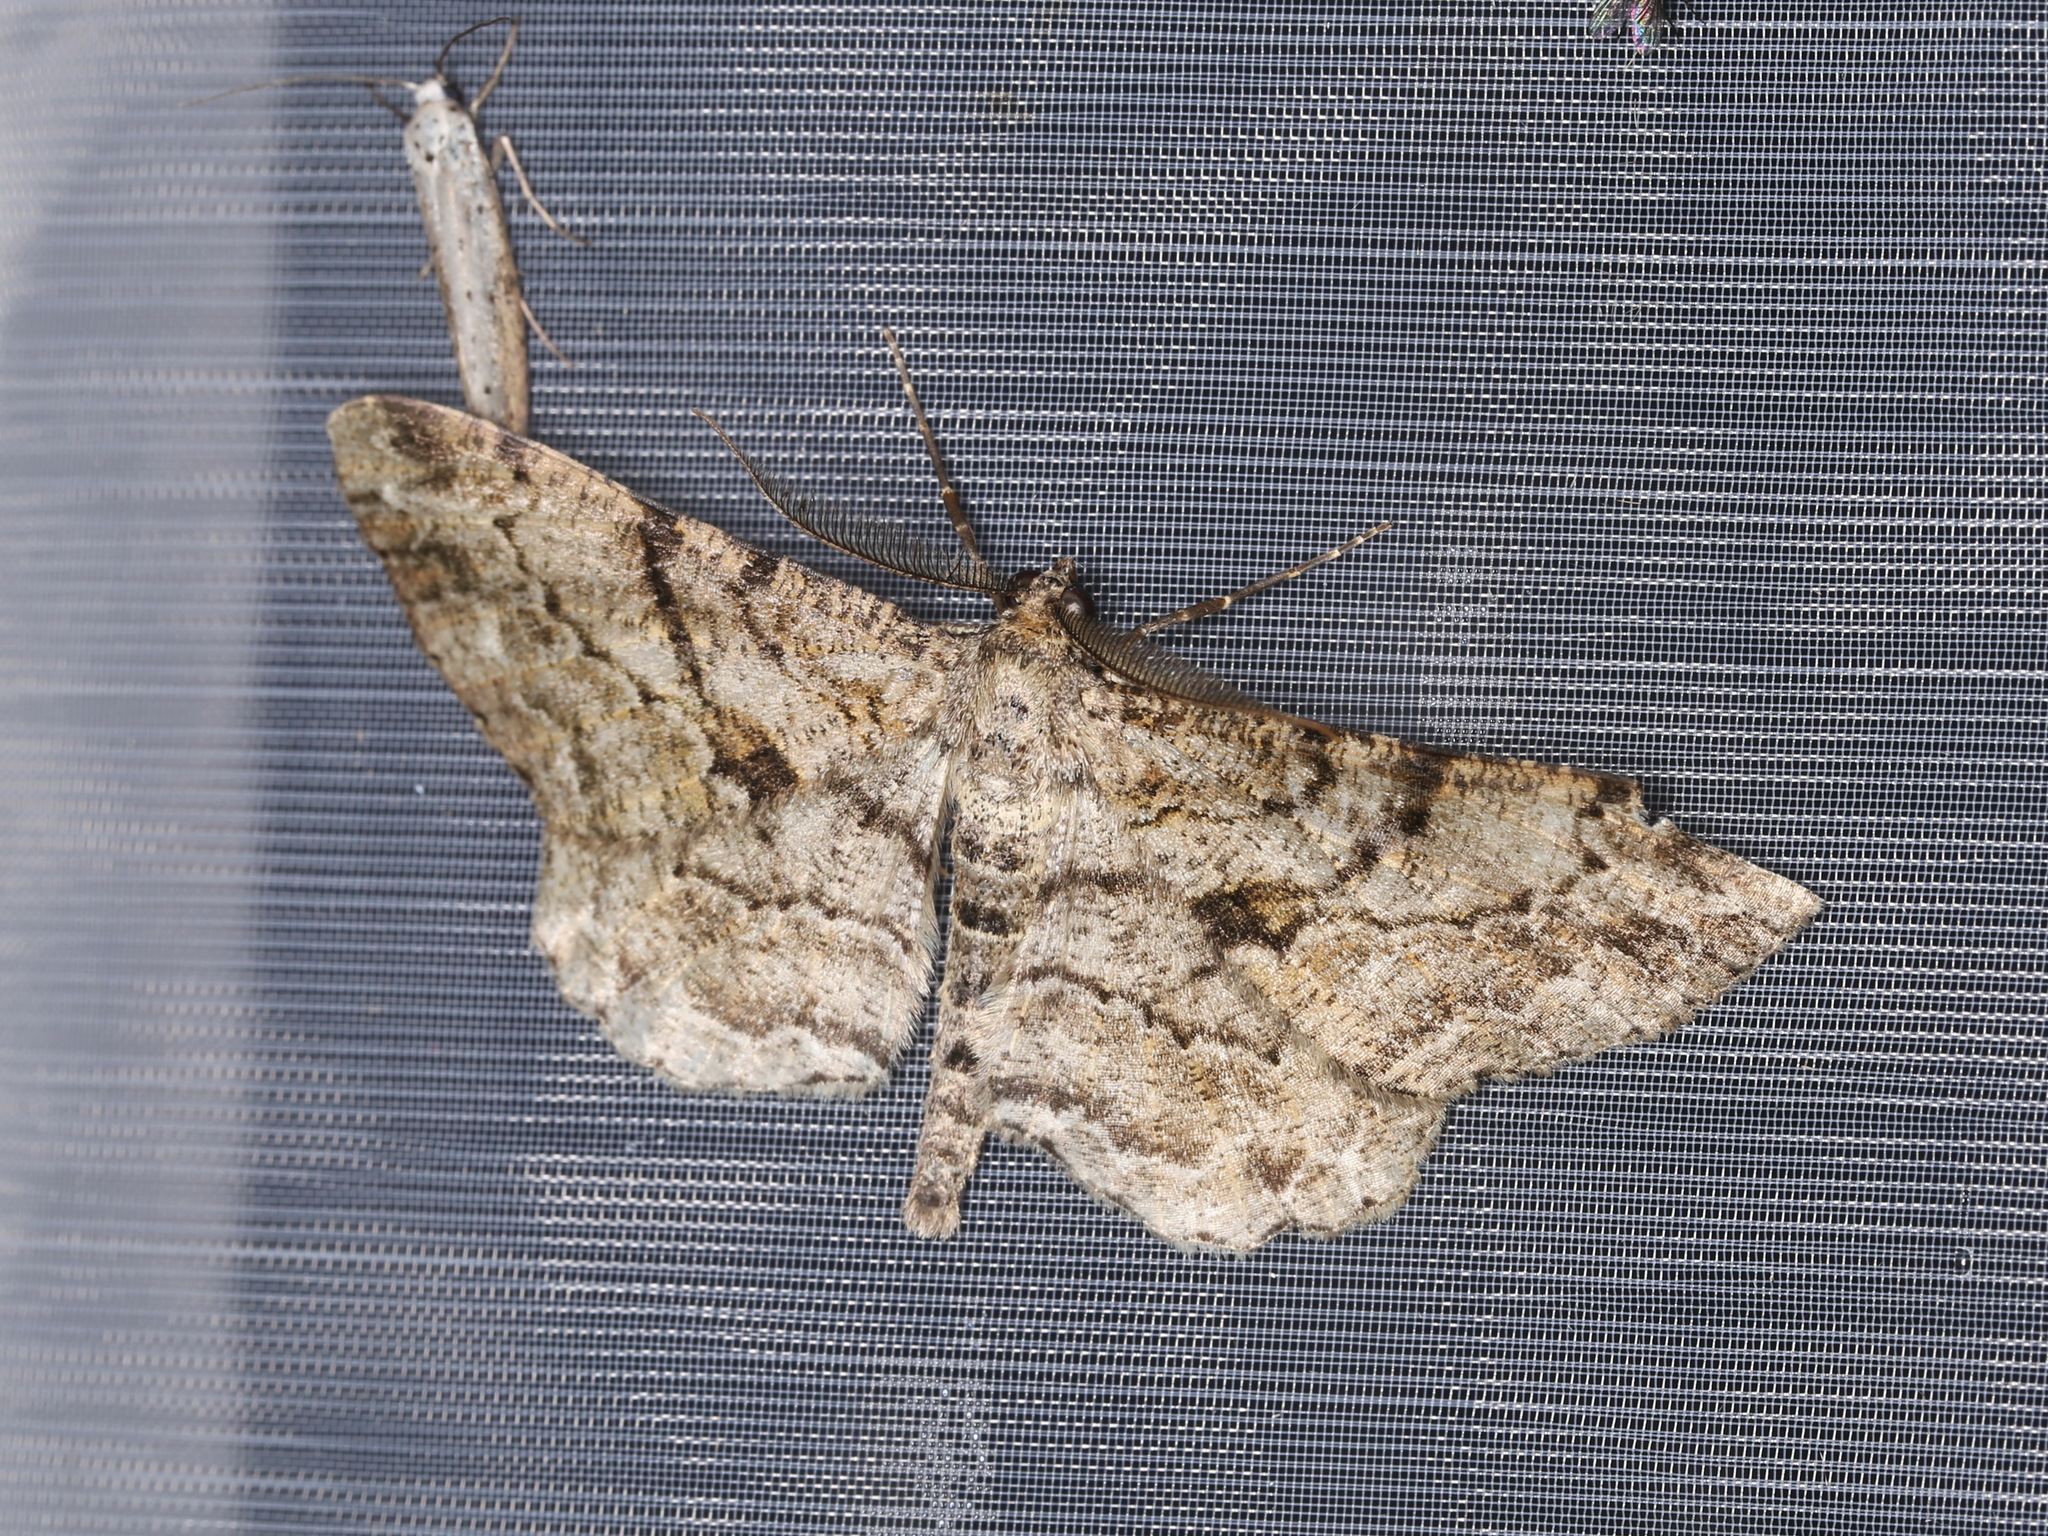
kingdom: Animalia
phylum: Arthropoda
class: Insecta
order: Lepidoptera
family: Geometridae
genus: Peribatodes
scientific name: Peribatodes rhomboidaria
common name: Willow beauty
